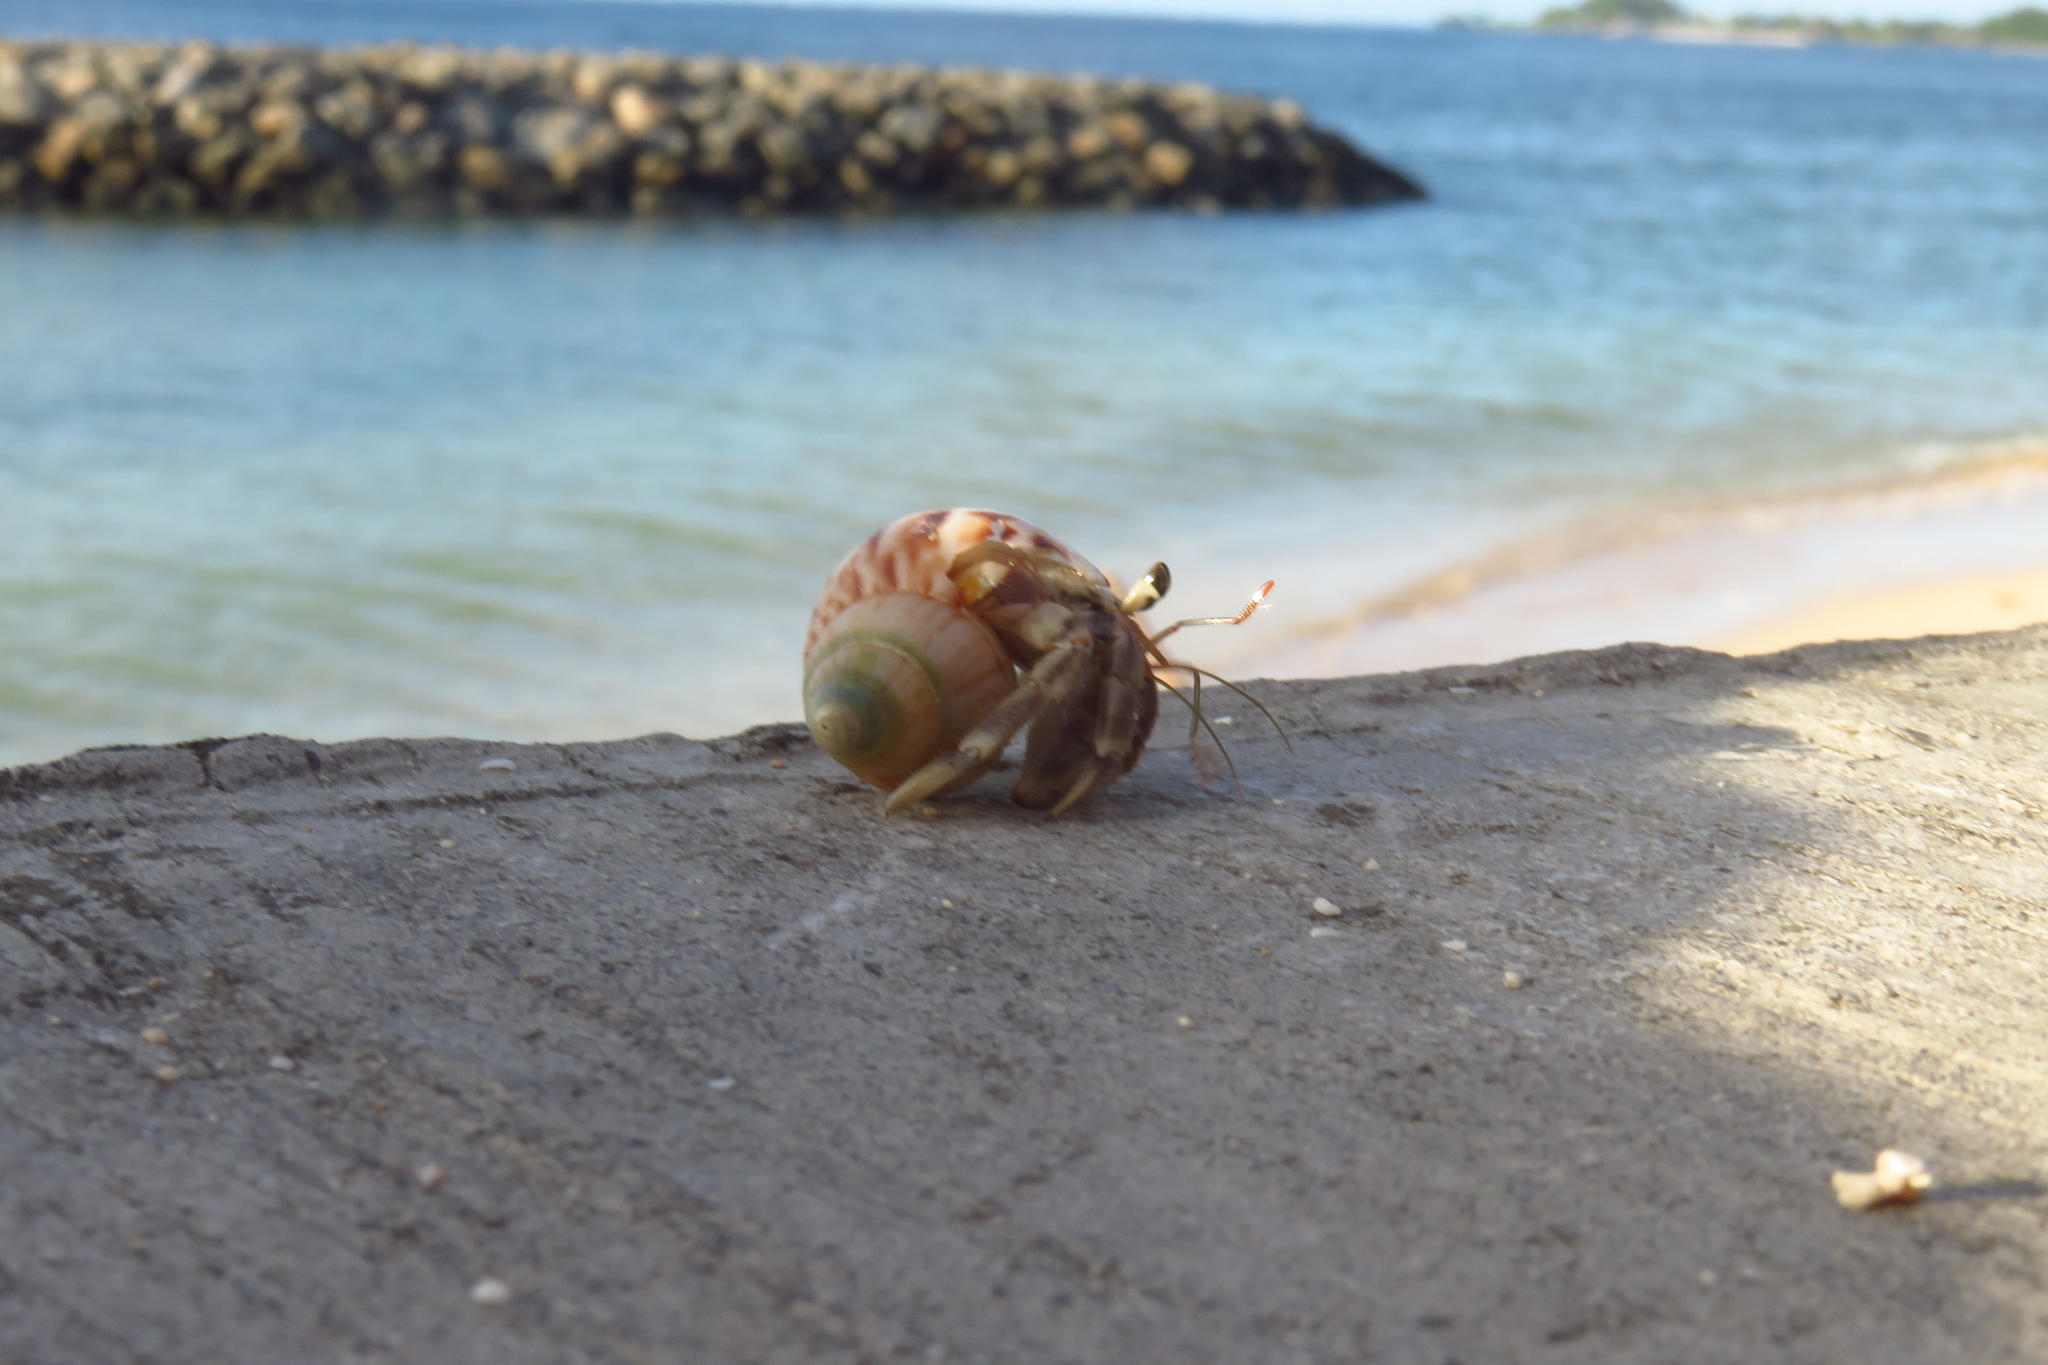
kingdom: Animalia
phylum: Arthropoda
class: Malacostraca
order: Decapoda
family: Coenobitidae
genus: Coenobita
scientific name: Coenobita rugosus
